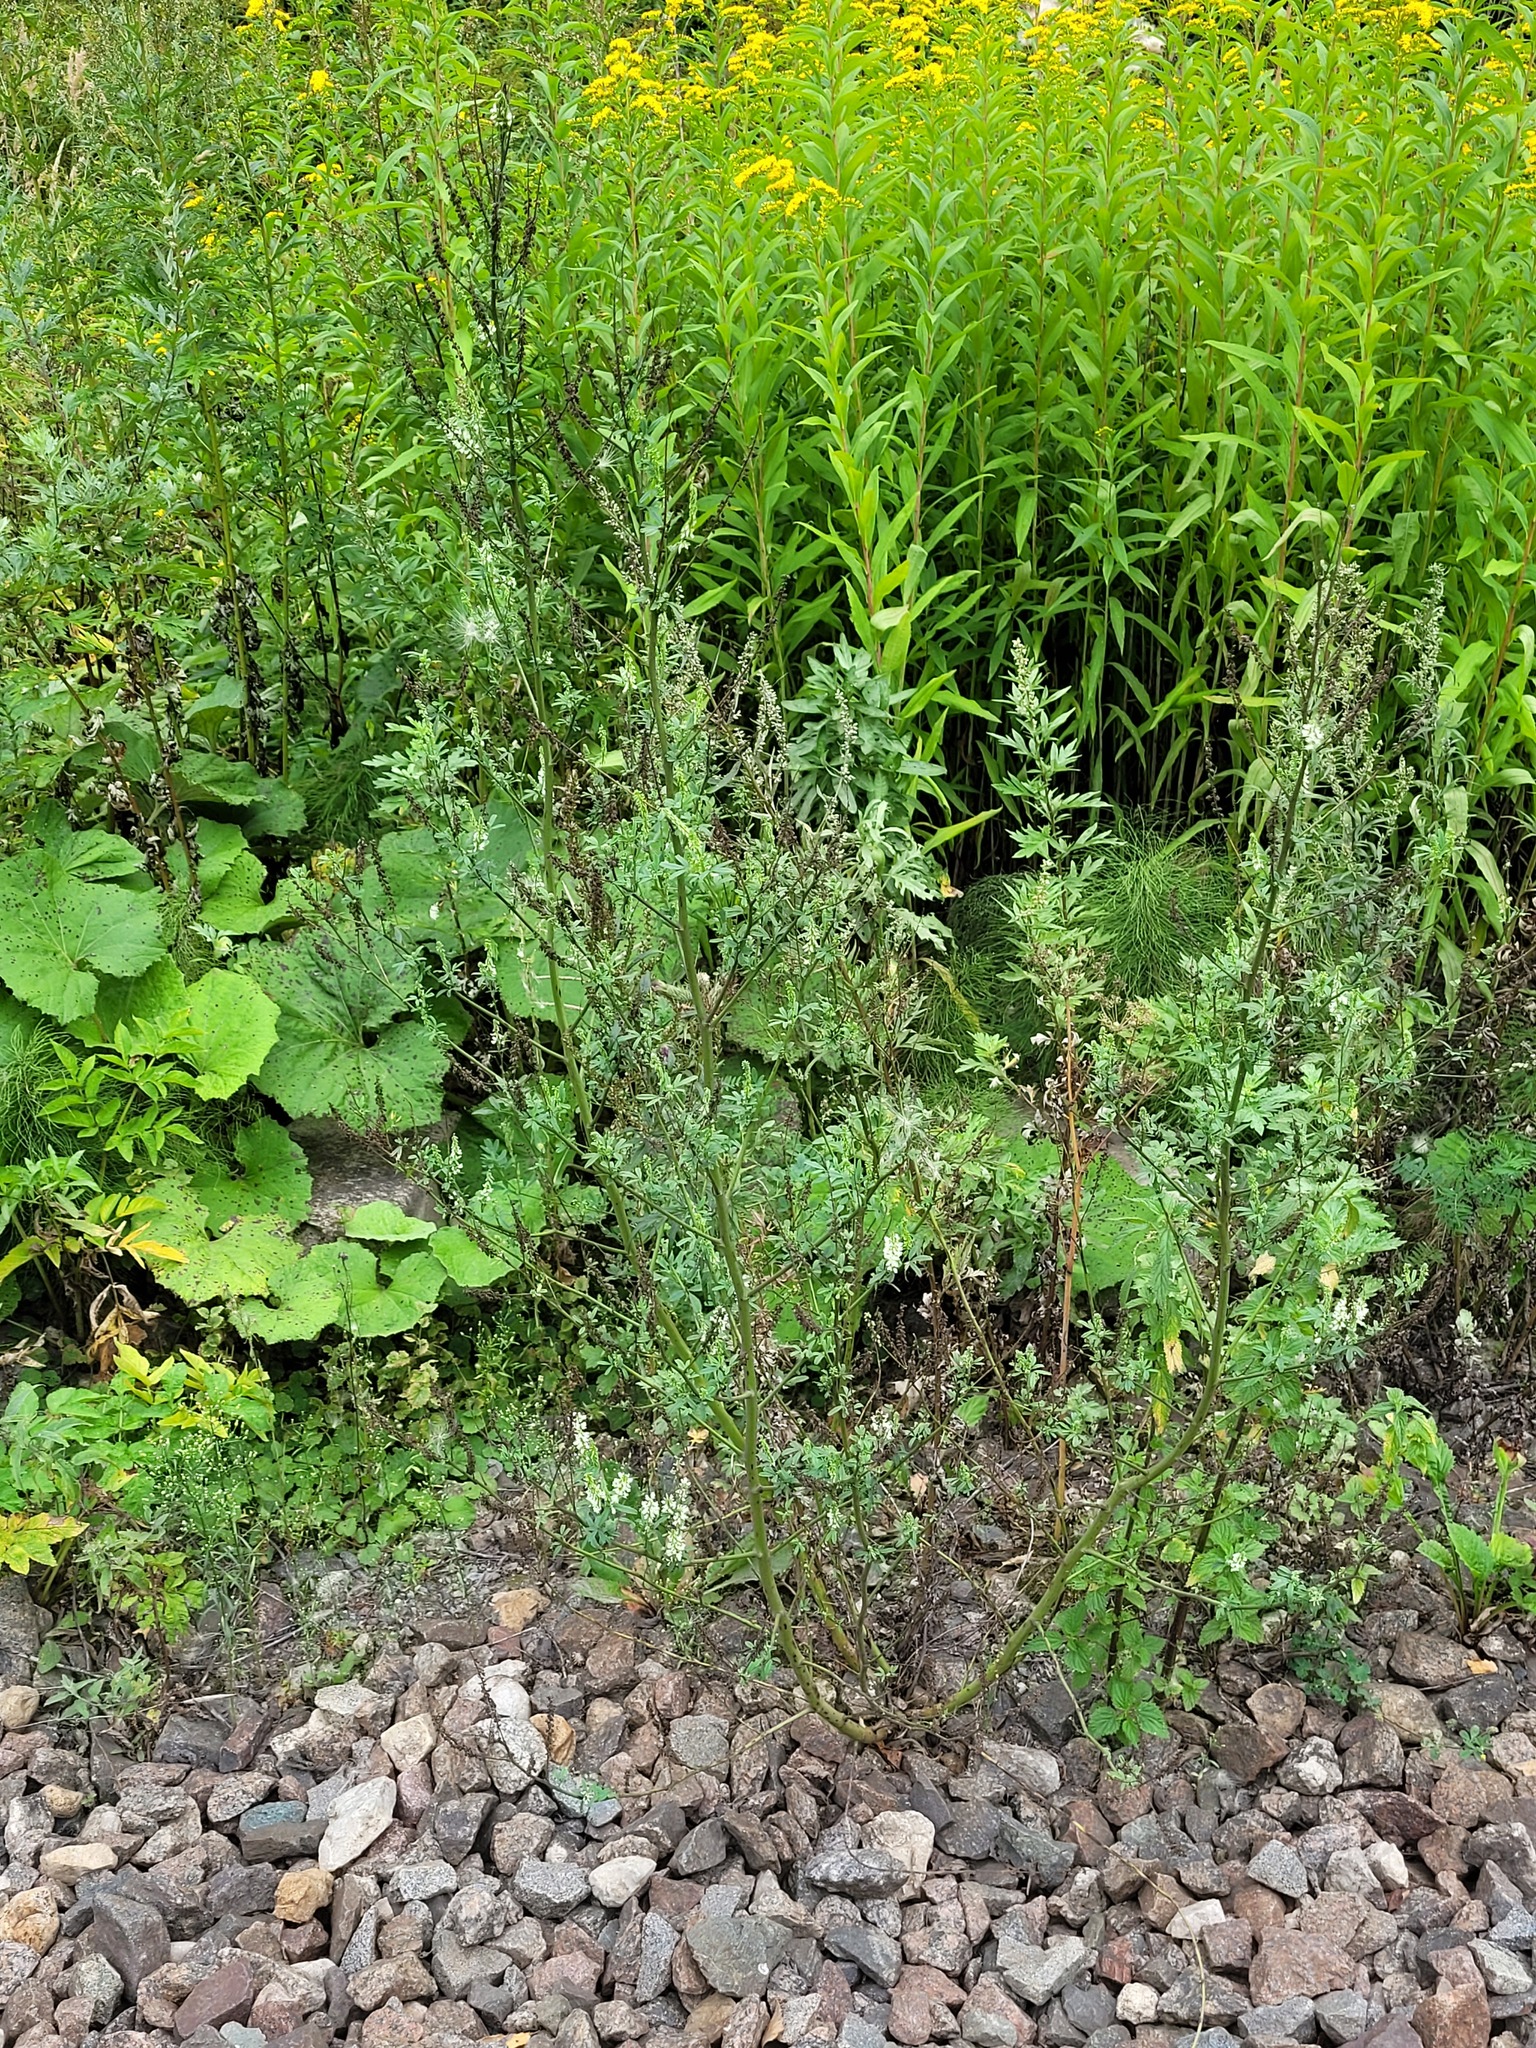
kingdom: Plantae
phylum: Tracheophyta
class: Magnoliopsida
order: Fabales
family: Fabaceae
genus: Melilotus
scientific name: Melilotus albus
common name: White melilot
